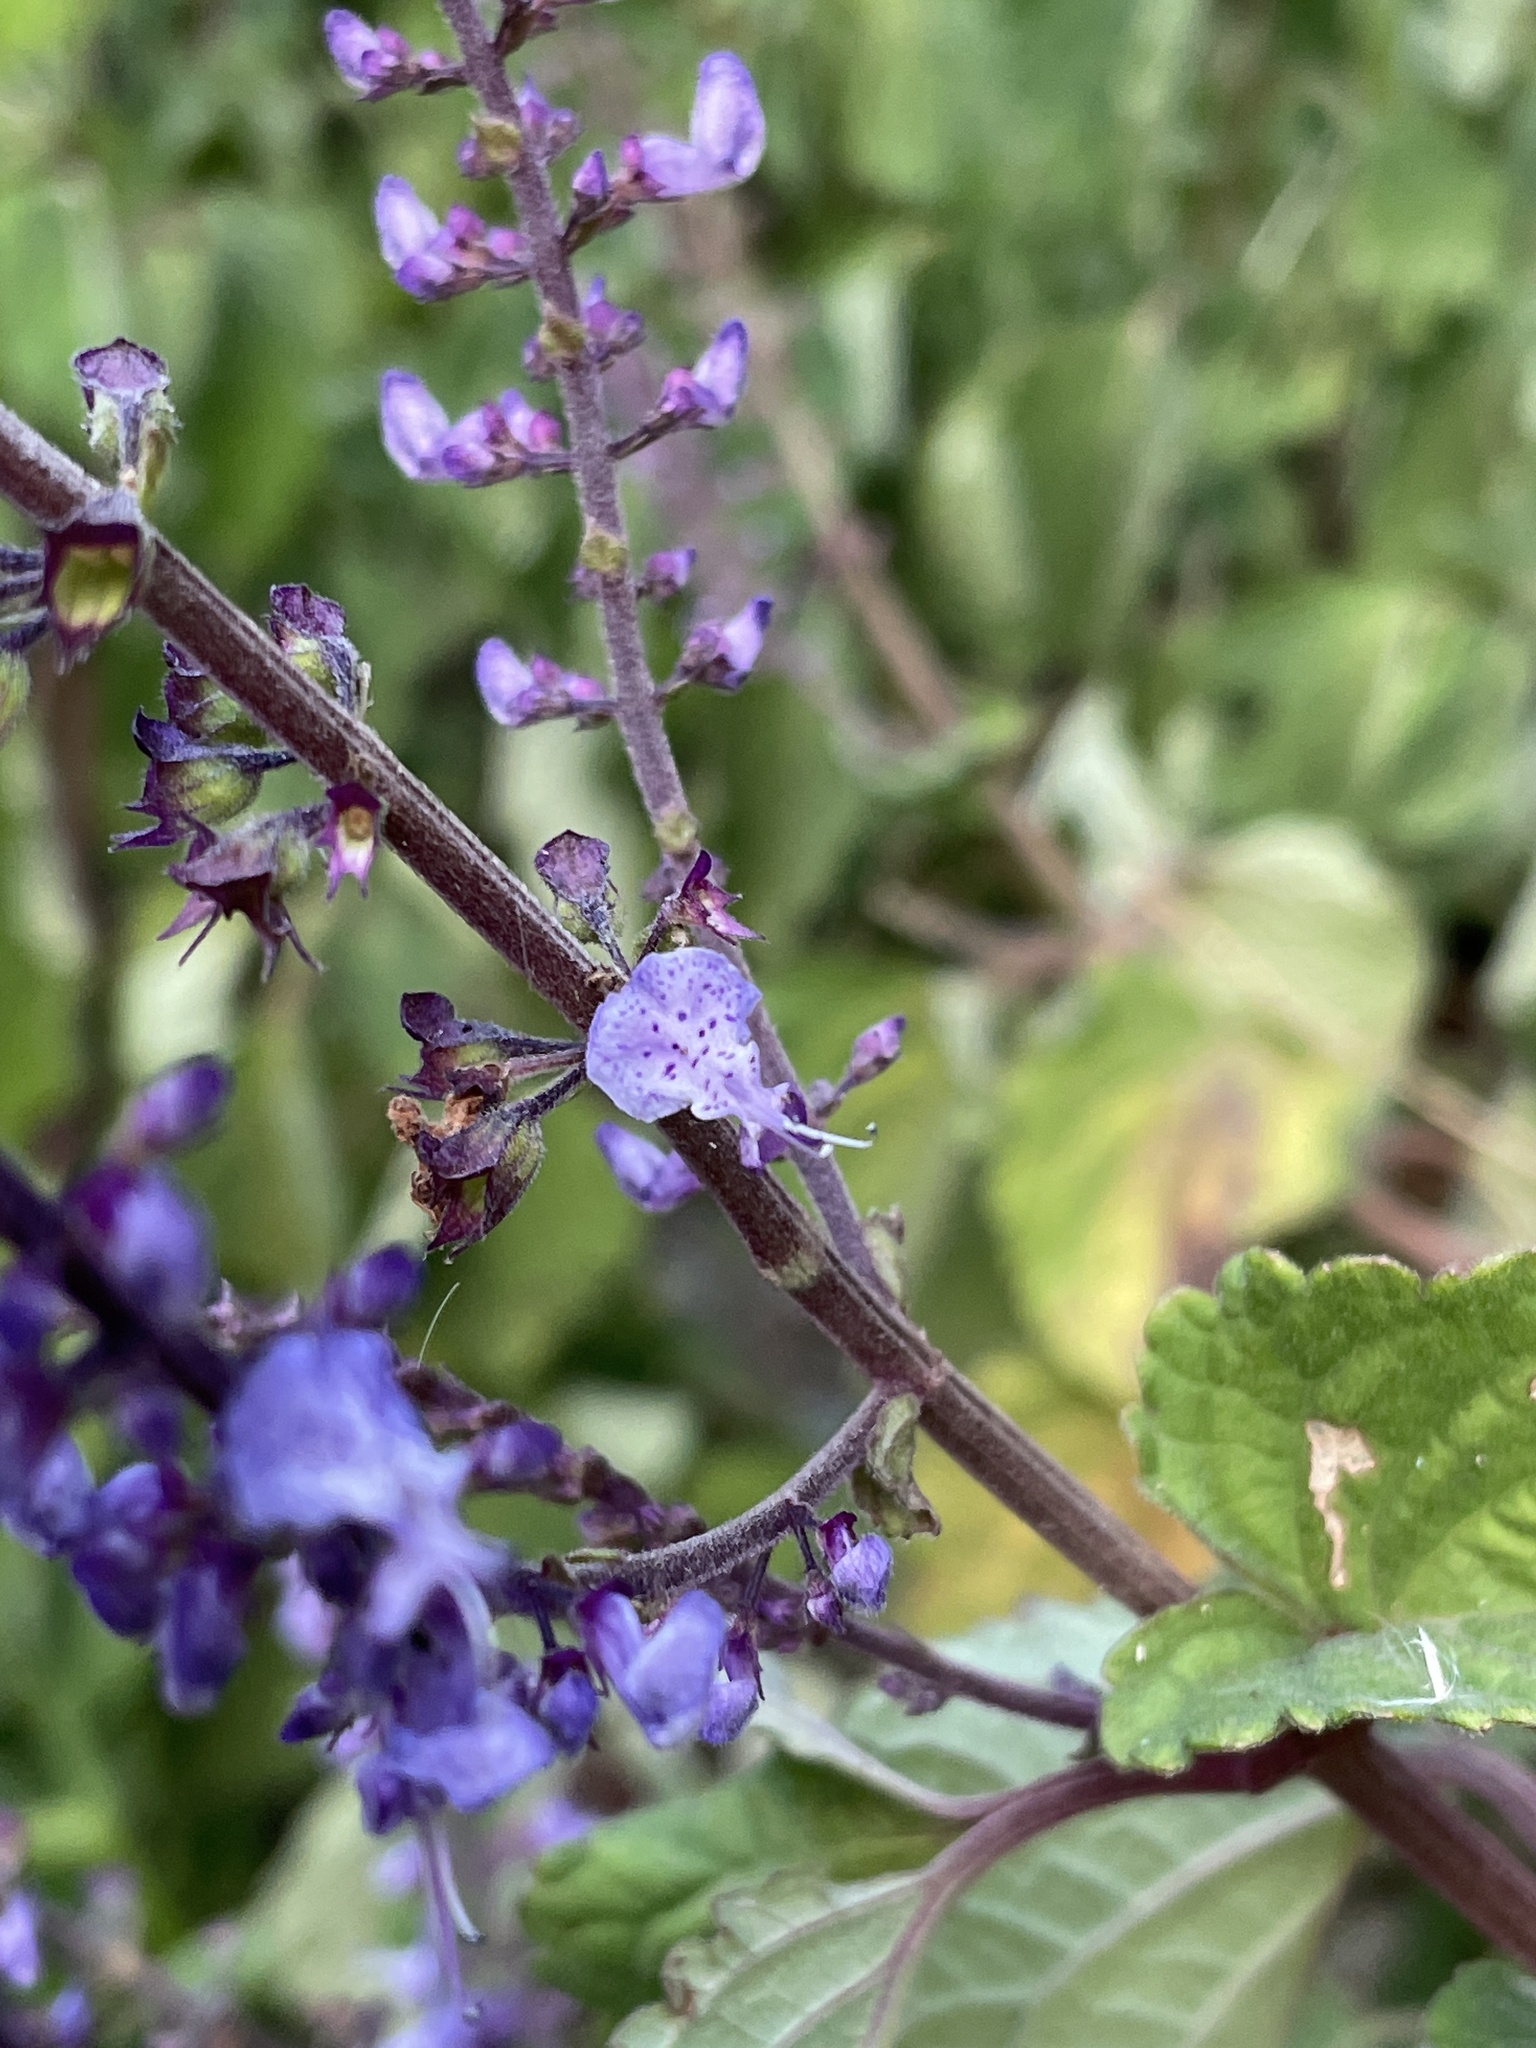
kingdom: Plantae
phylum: Tracheophyta
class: Magnoliopsida
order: Lamiales
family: Lamiaceae
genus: Plectranthus
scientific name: Plectranthus fruticosus
